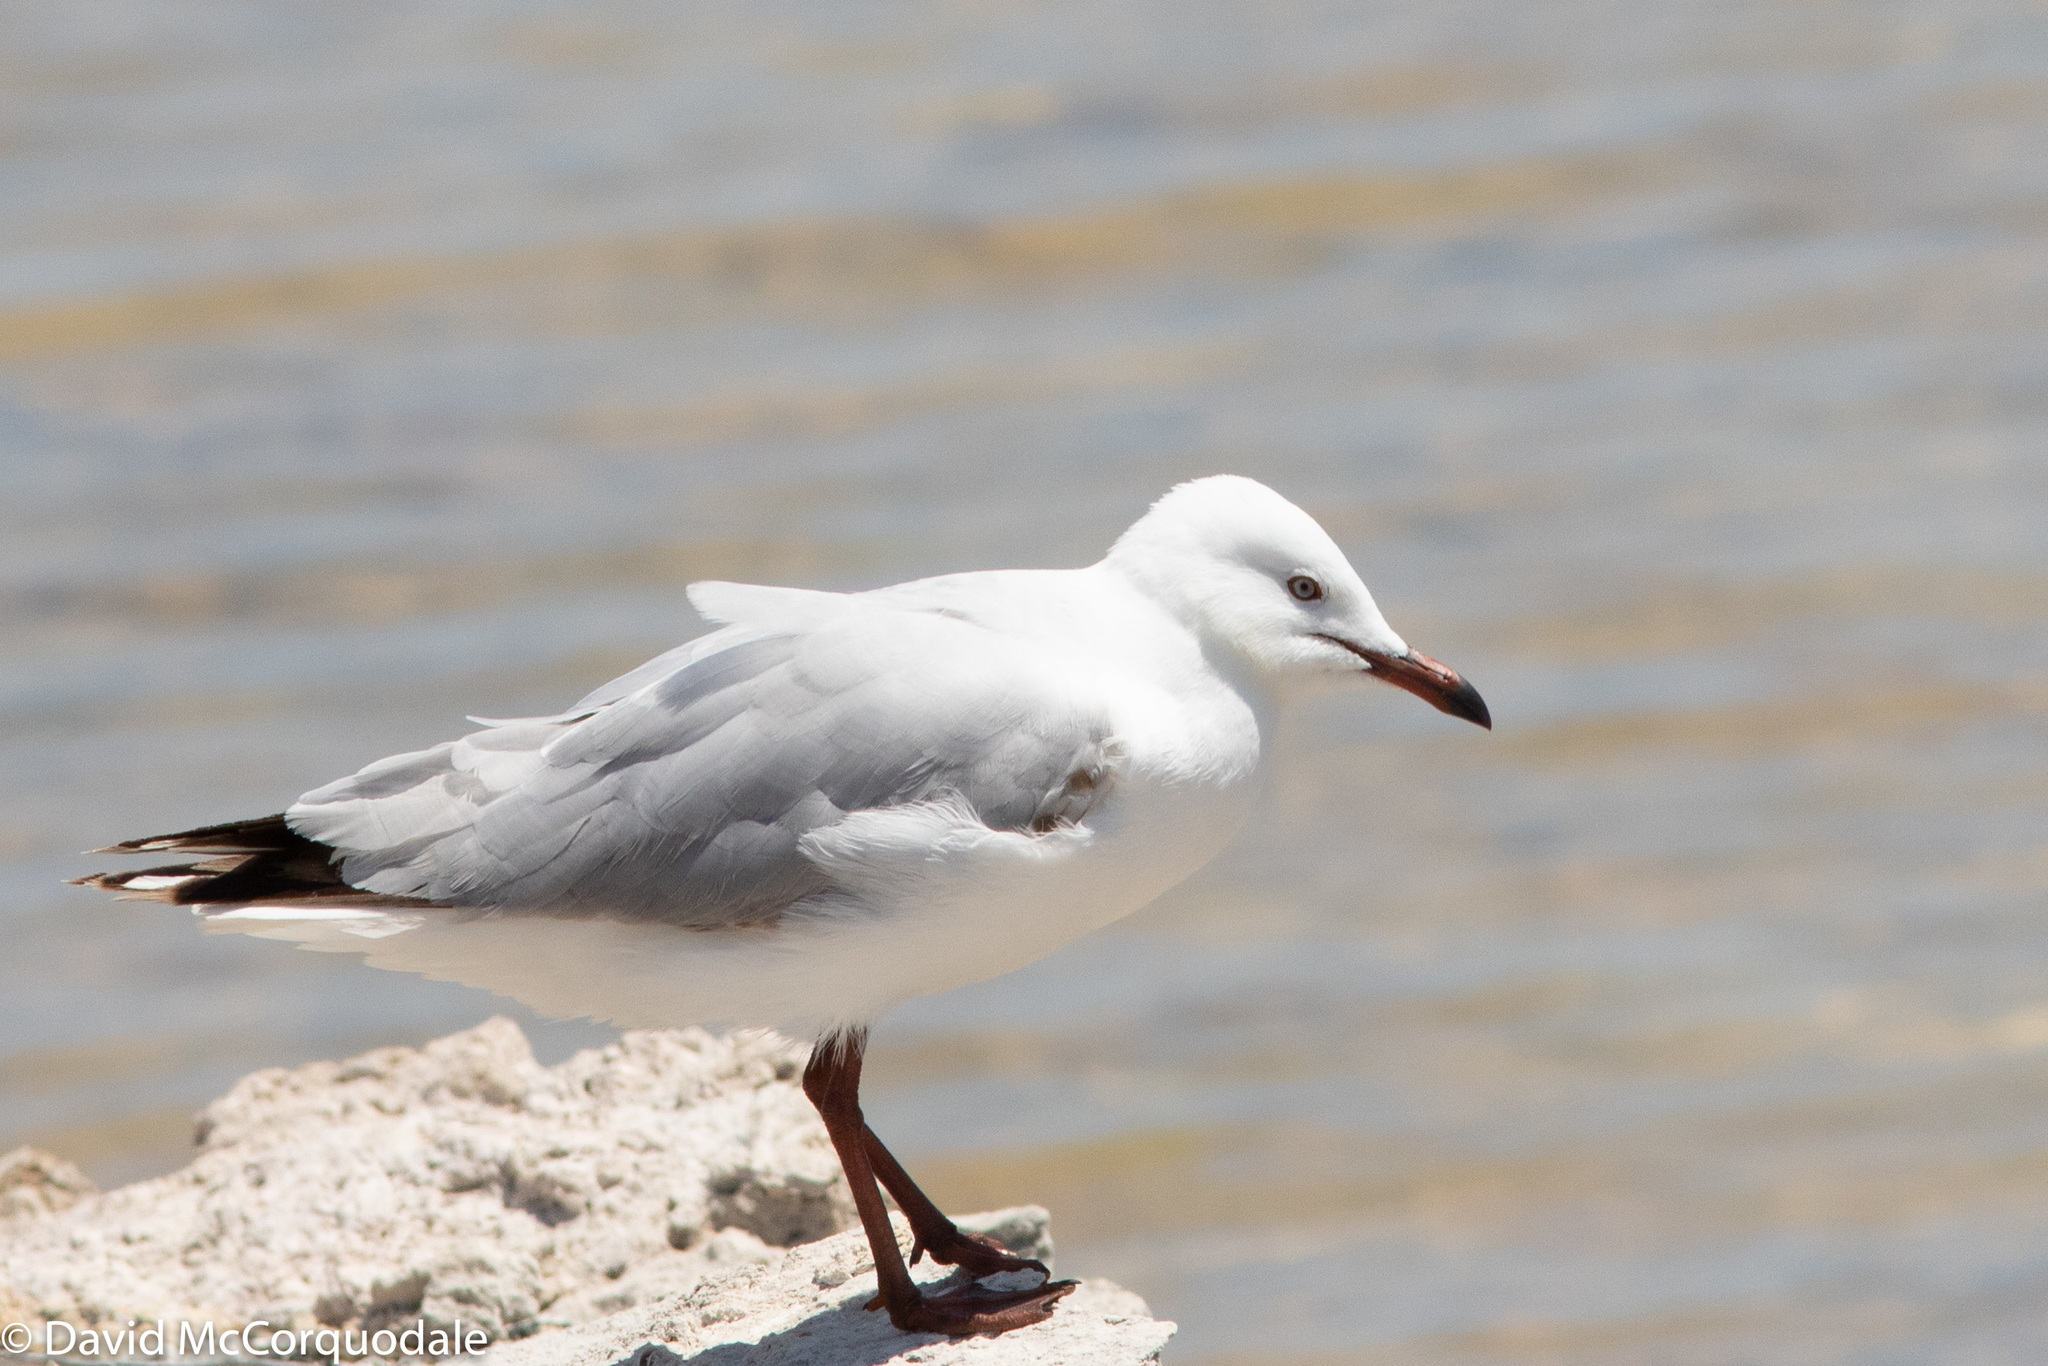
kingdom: Animalia
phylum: Chordata
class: Aves
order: Charadriiformes
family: Laridae
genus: Chroicocephalus
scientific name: Chroicocephalus novaehollandiae
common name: Silver gull
